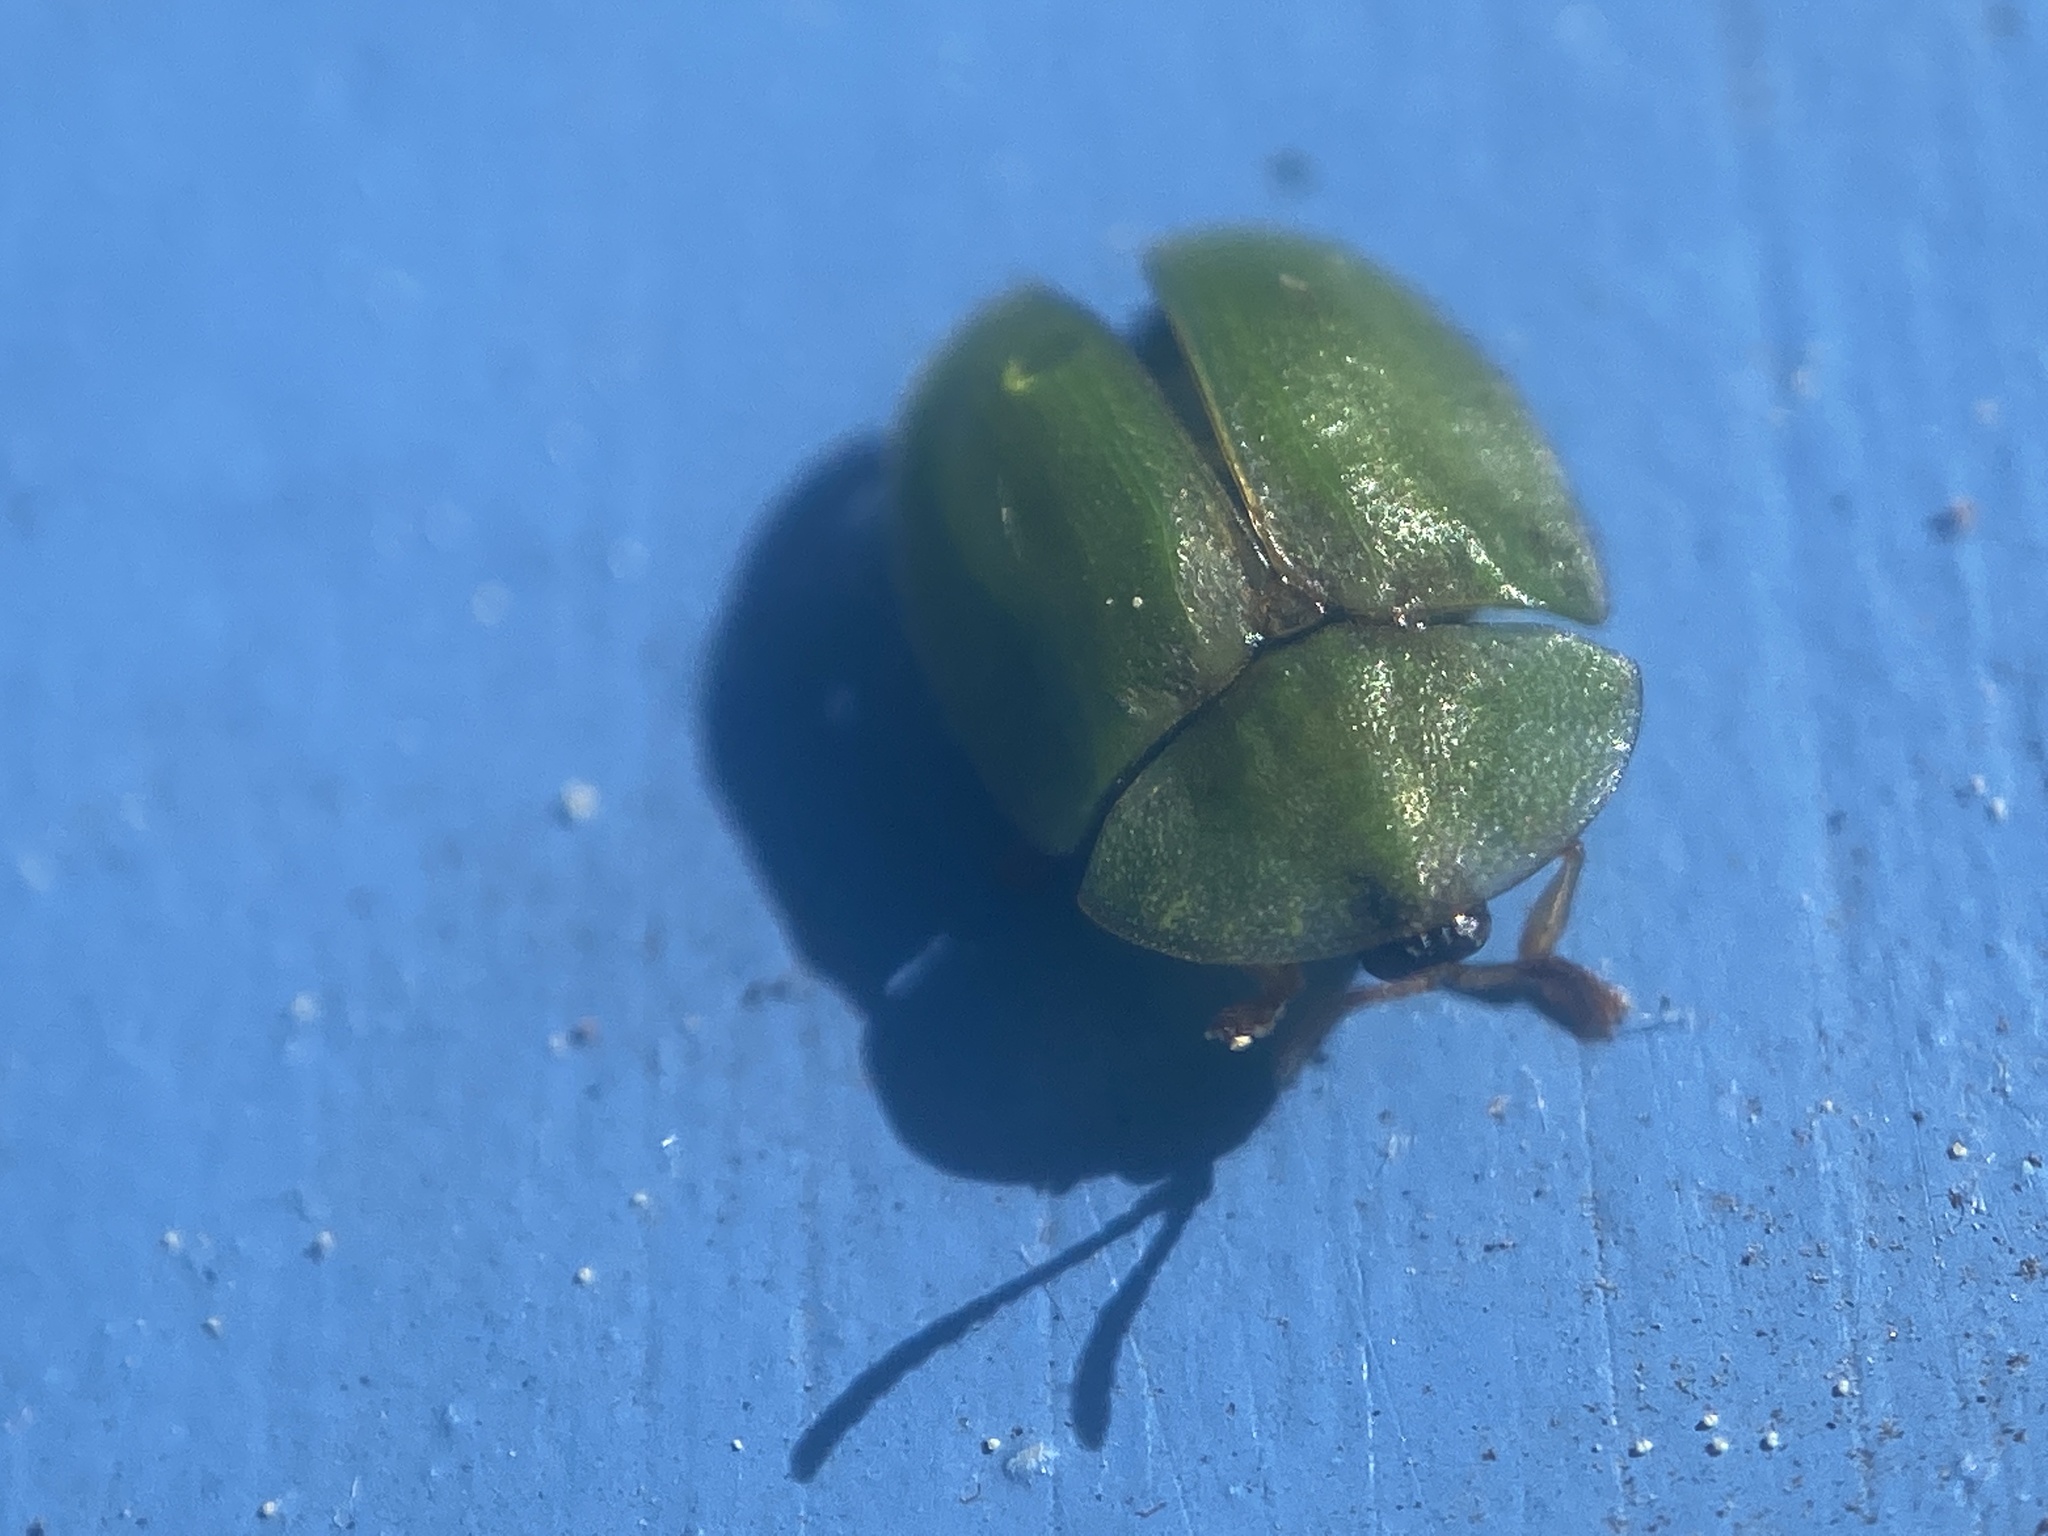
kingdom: Animalia
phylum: Arthropoda
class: Insecta
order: Coleoptera
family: Chrysomelidae
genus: Cassida
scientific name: Cassida rubiginosa
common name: Thistle tortoise beetle
